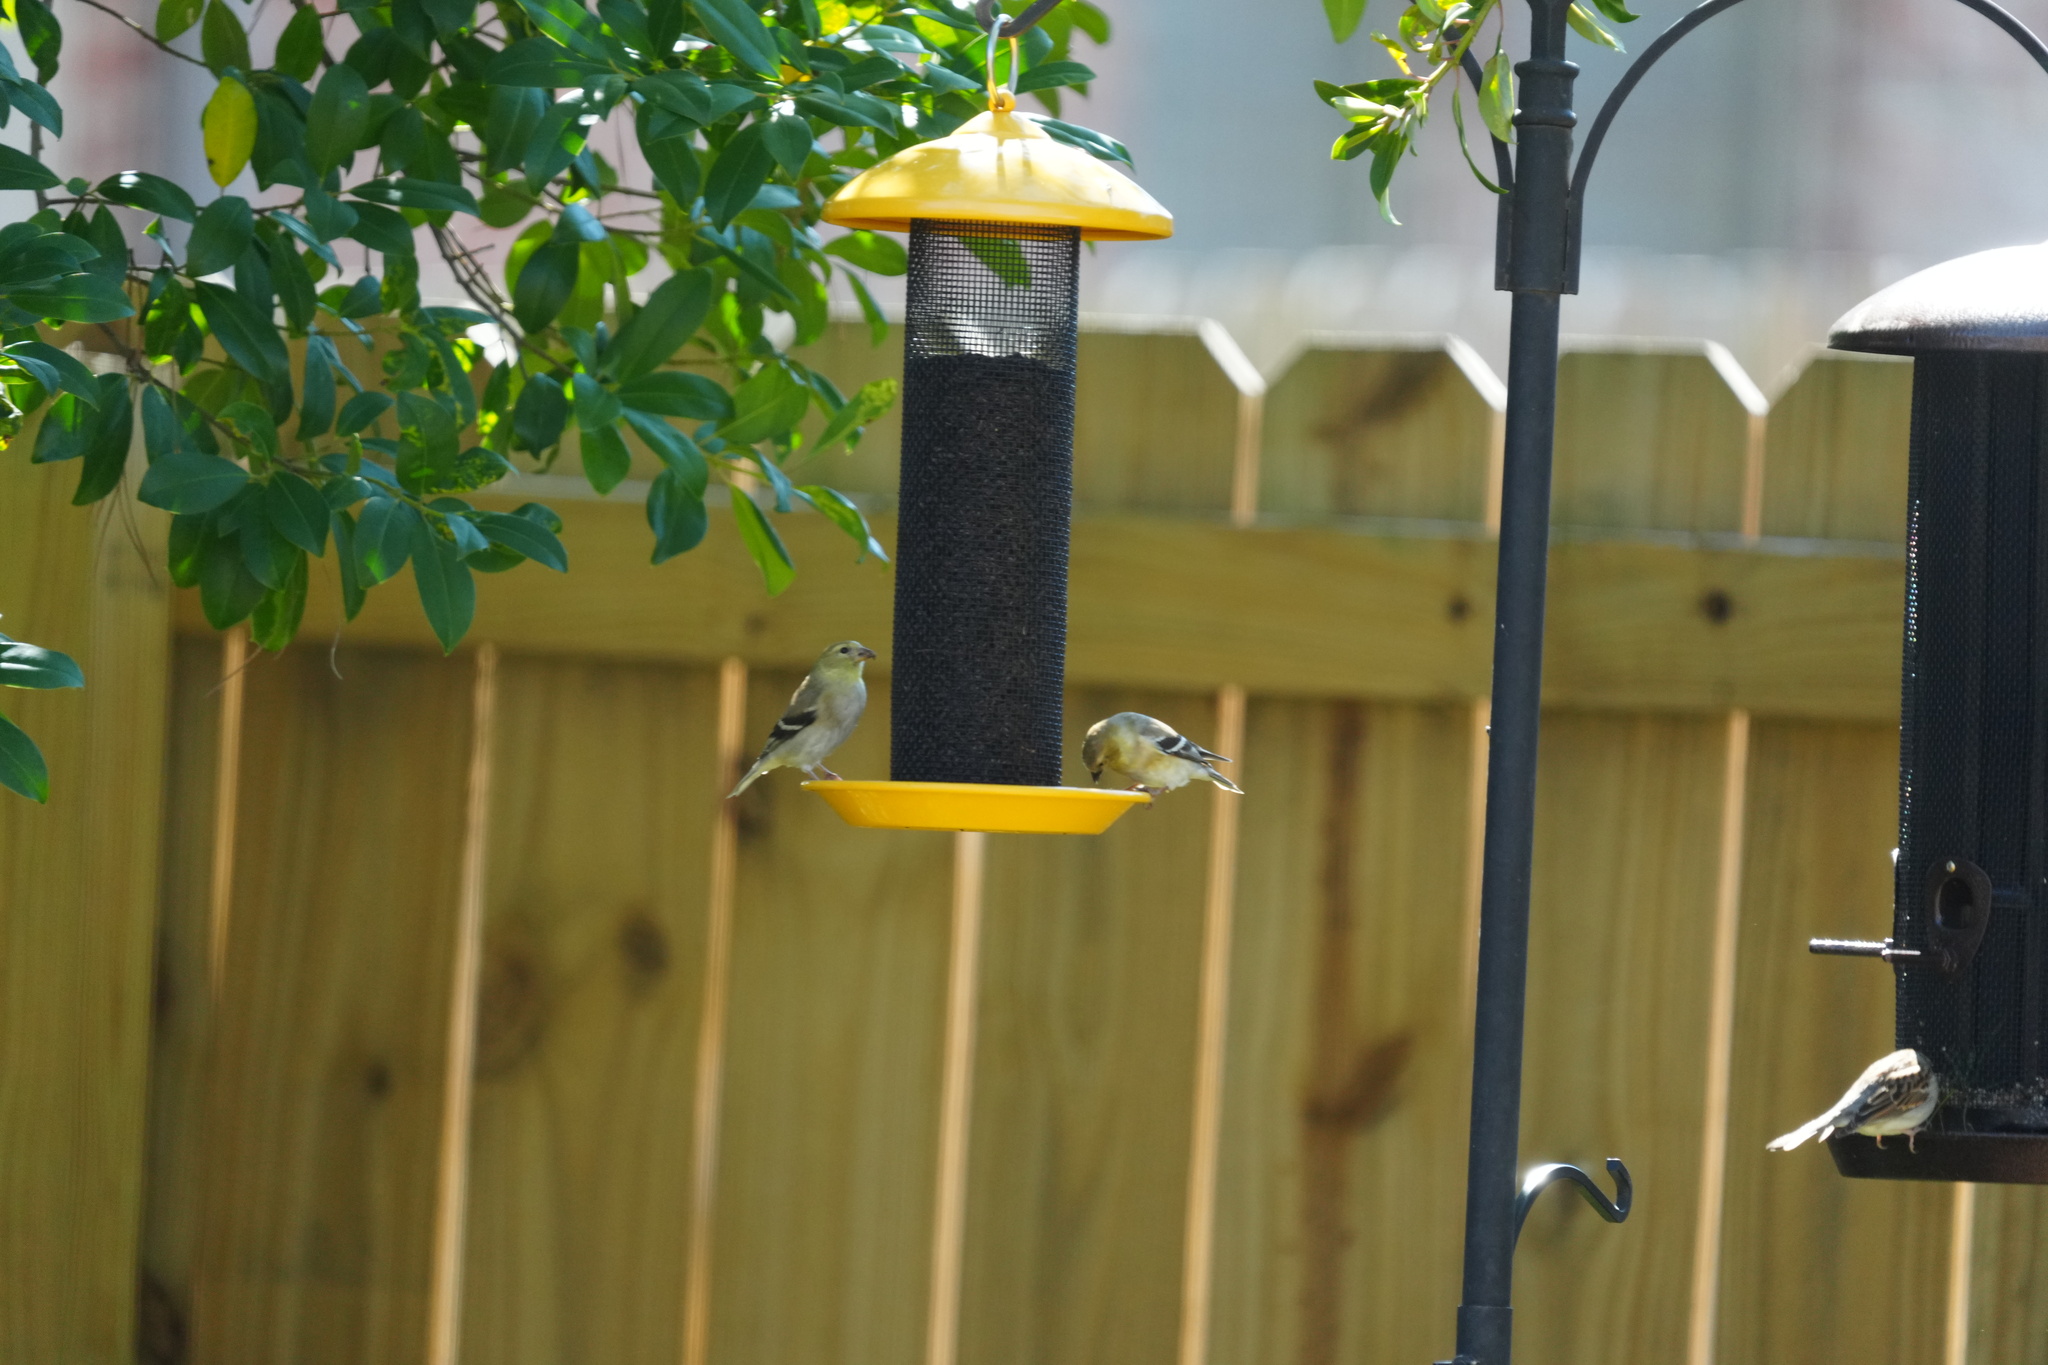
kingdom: Animalia
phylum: Chordata
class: Aves
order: Passeriformes
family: Fringillidae
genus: Spinus
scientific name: Spinus tristis
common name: American goldfinch
